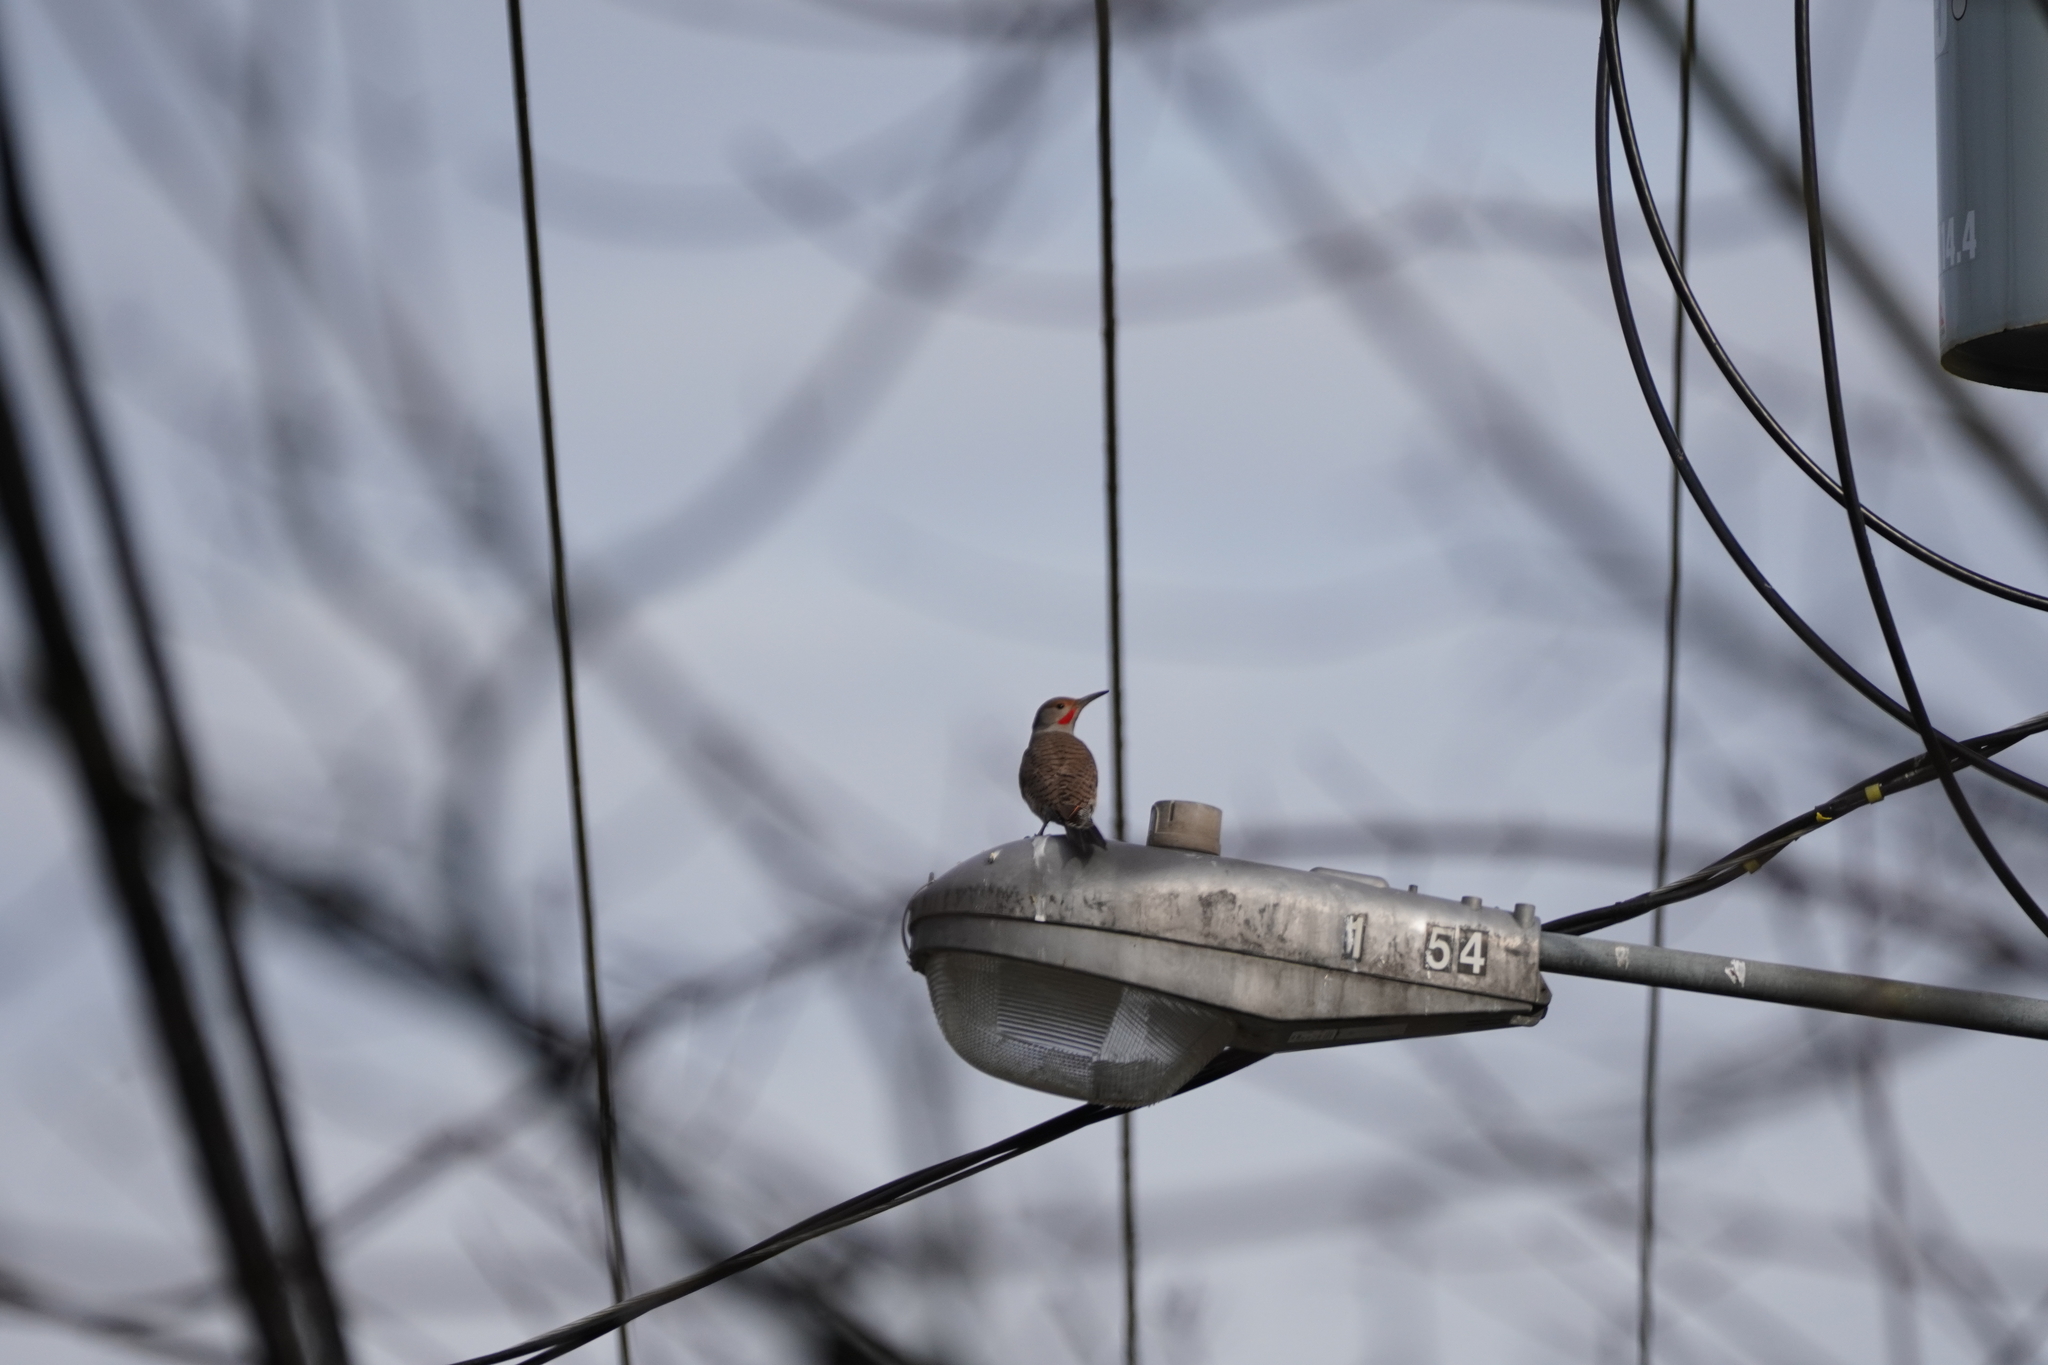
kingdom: Animalia
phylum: Chordata
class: Aves
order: Piciformes
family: Picidae
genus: Colaptes
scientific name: Colaptes auratus
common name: Northern flicker
